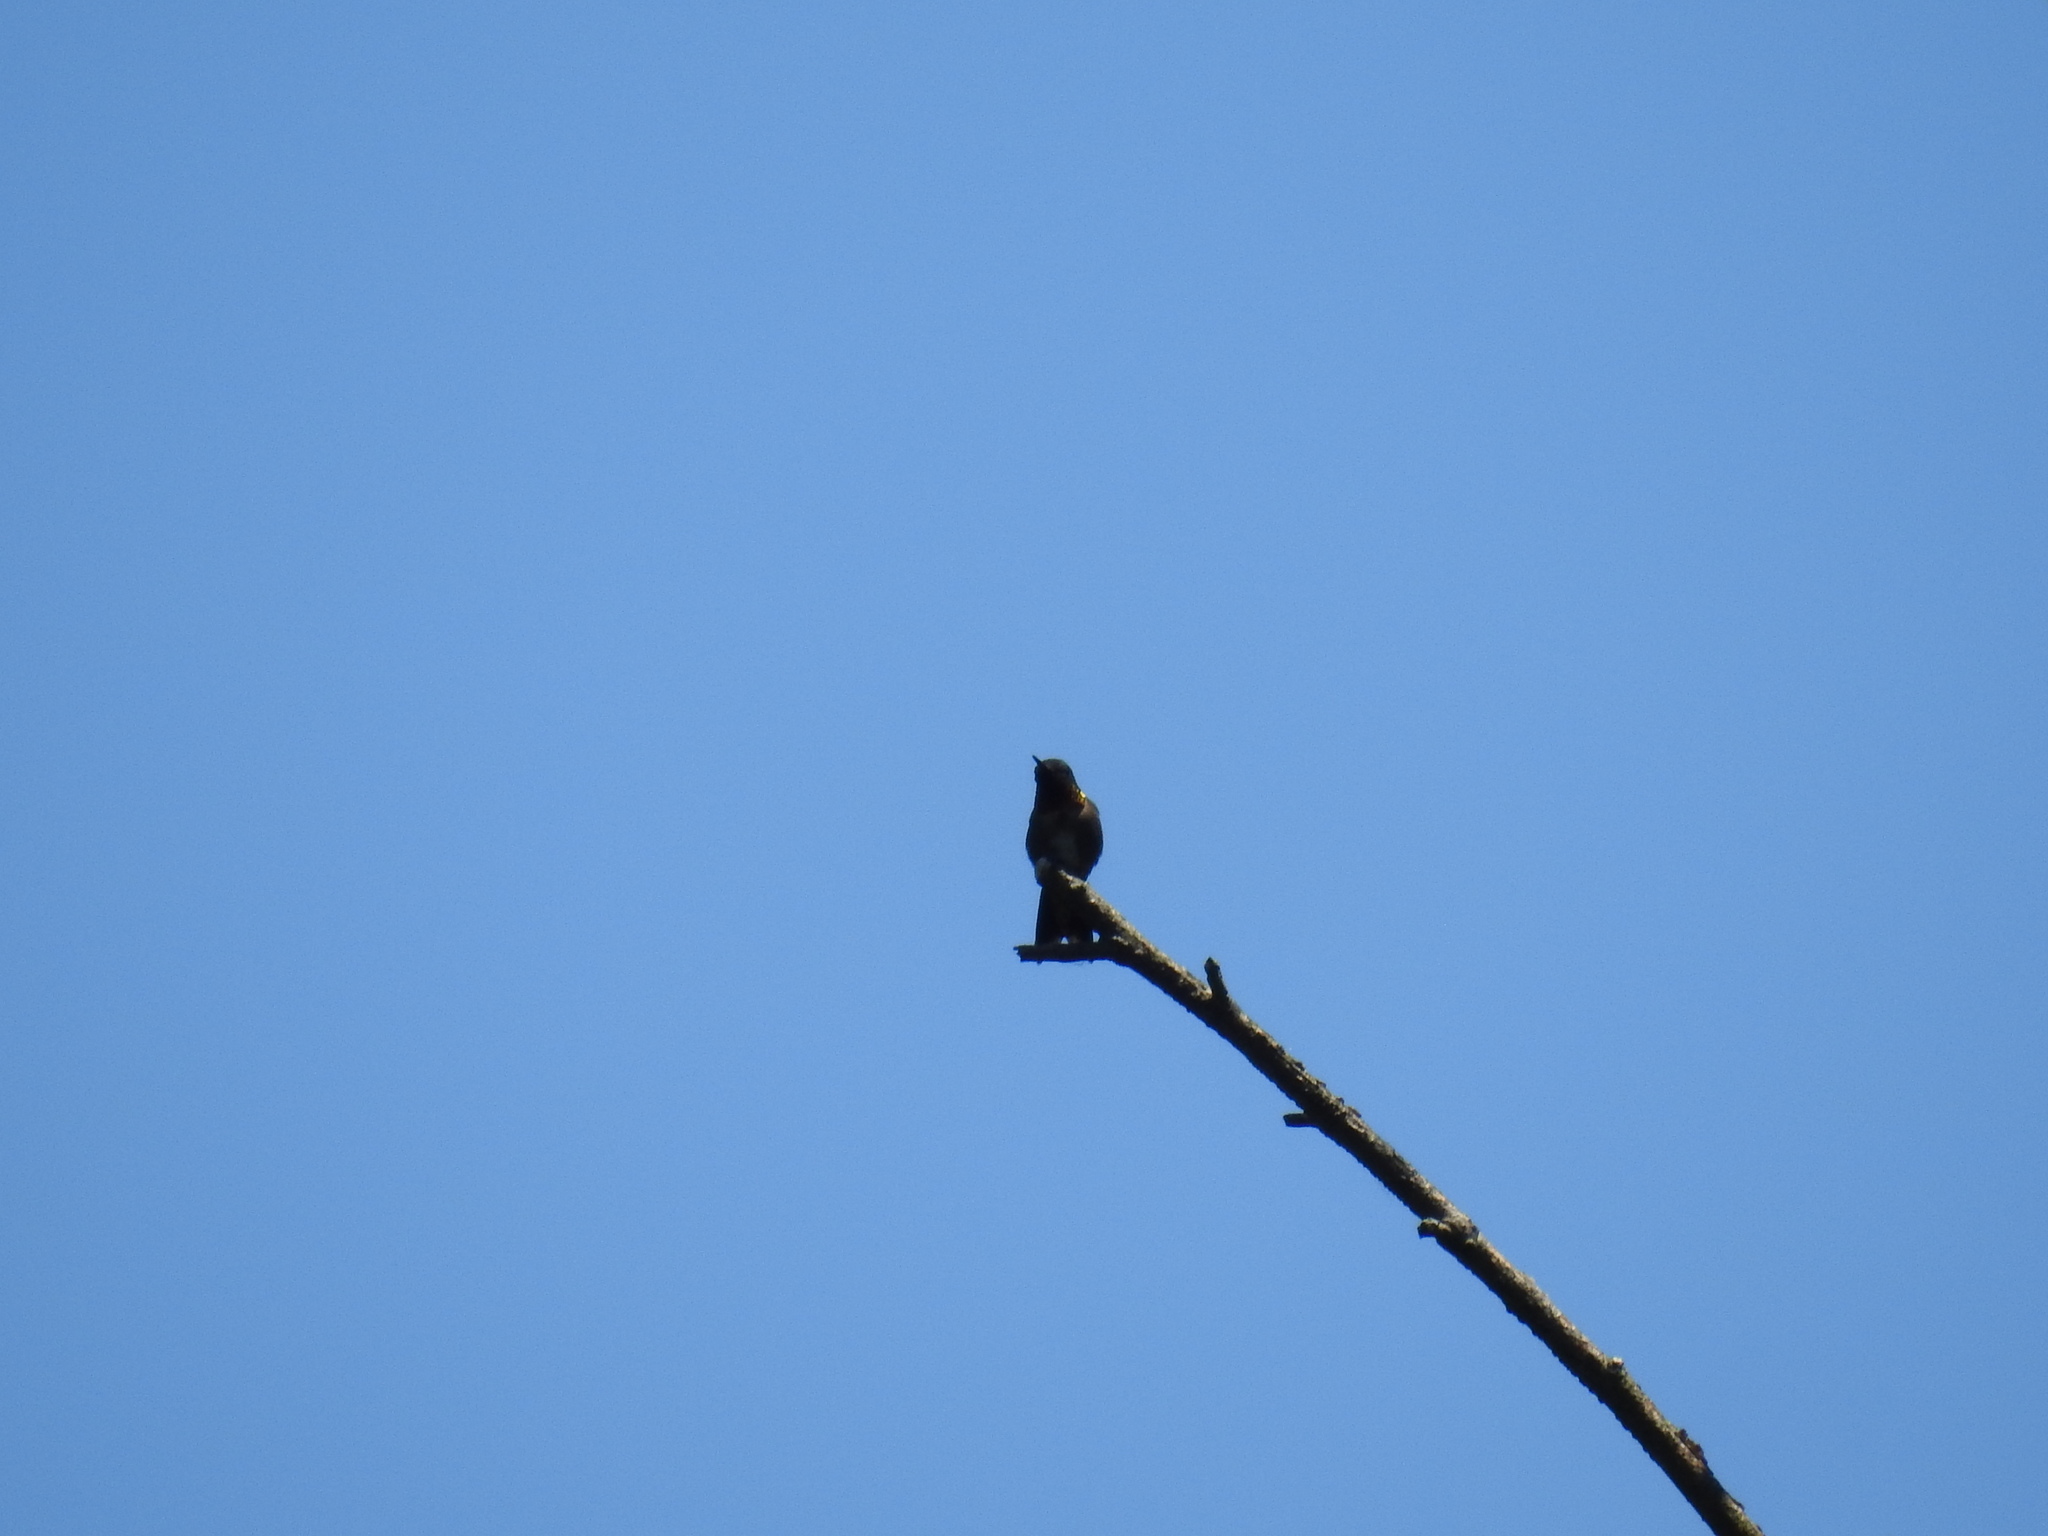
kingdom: Animalia
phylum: Chordata
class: Aves
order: Apodiformes
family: Trochilidae
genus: Archilochus
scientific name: Archilochus colubris
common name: Ruby-throated hummingbird
